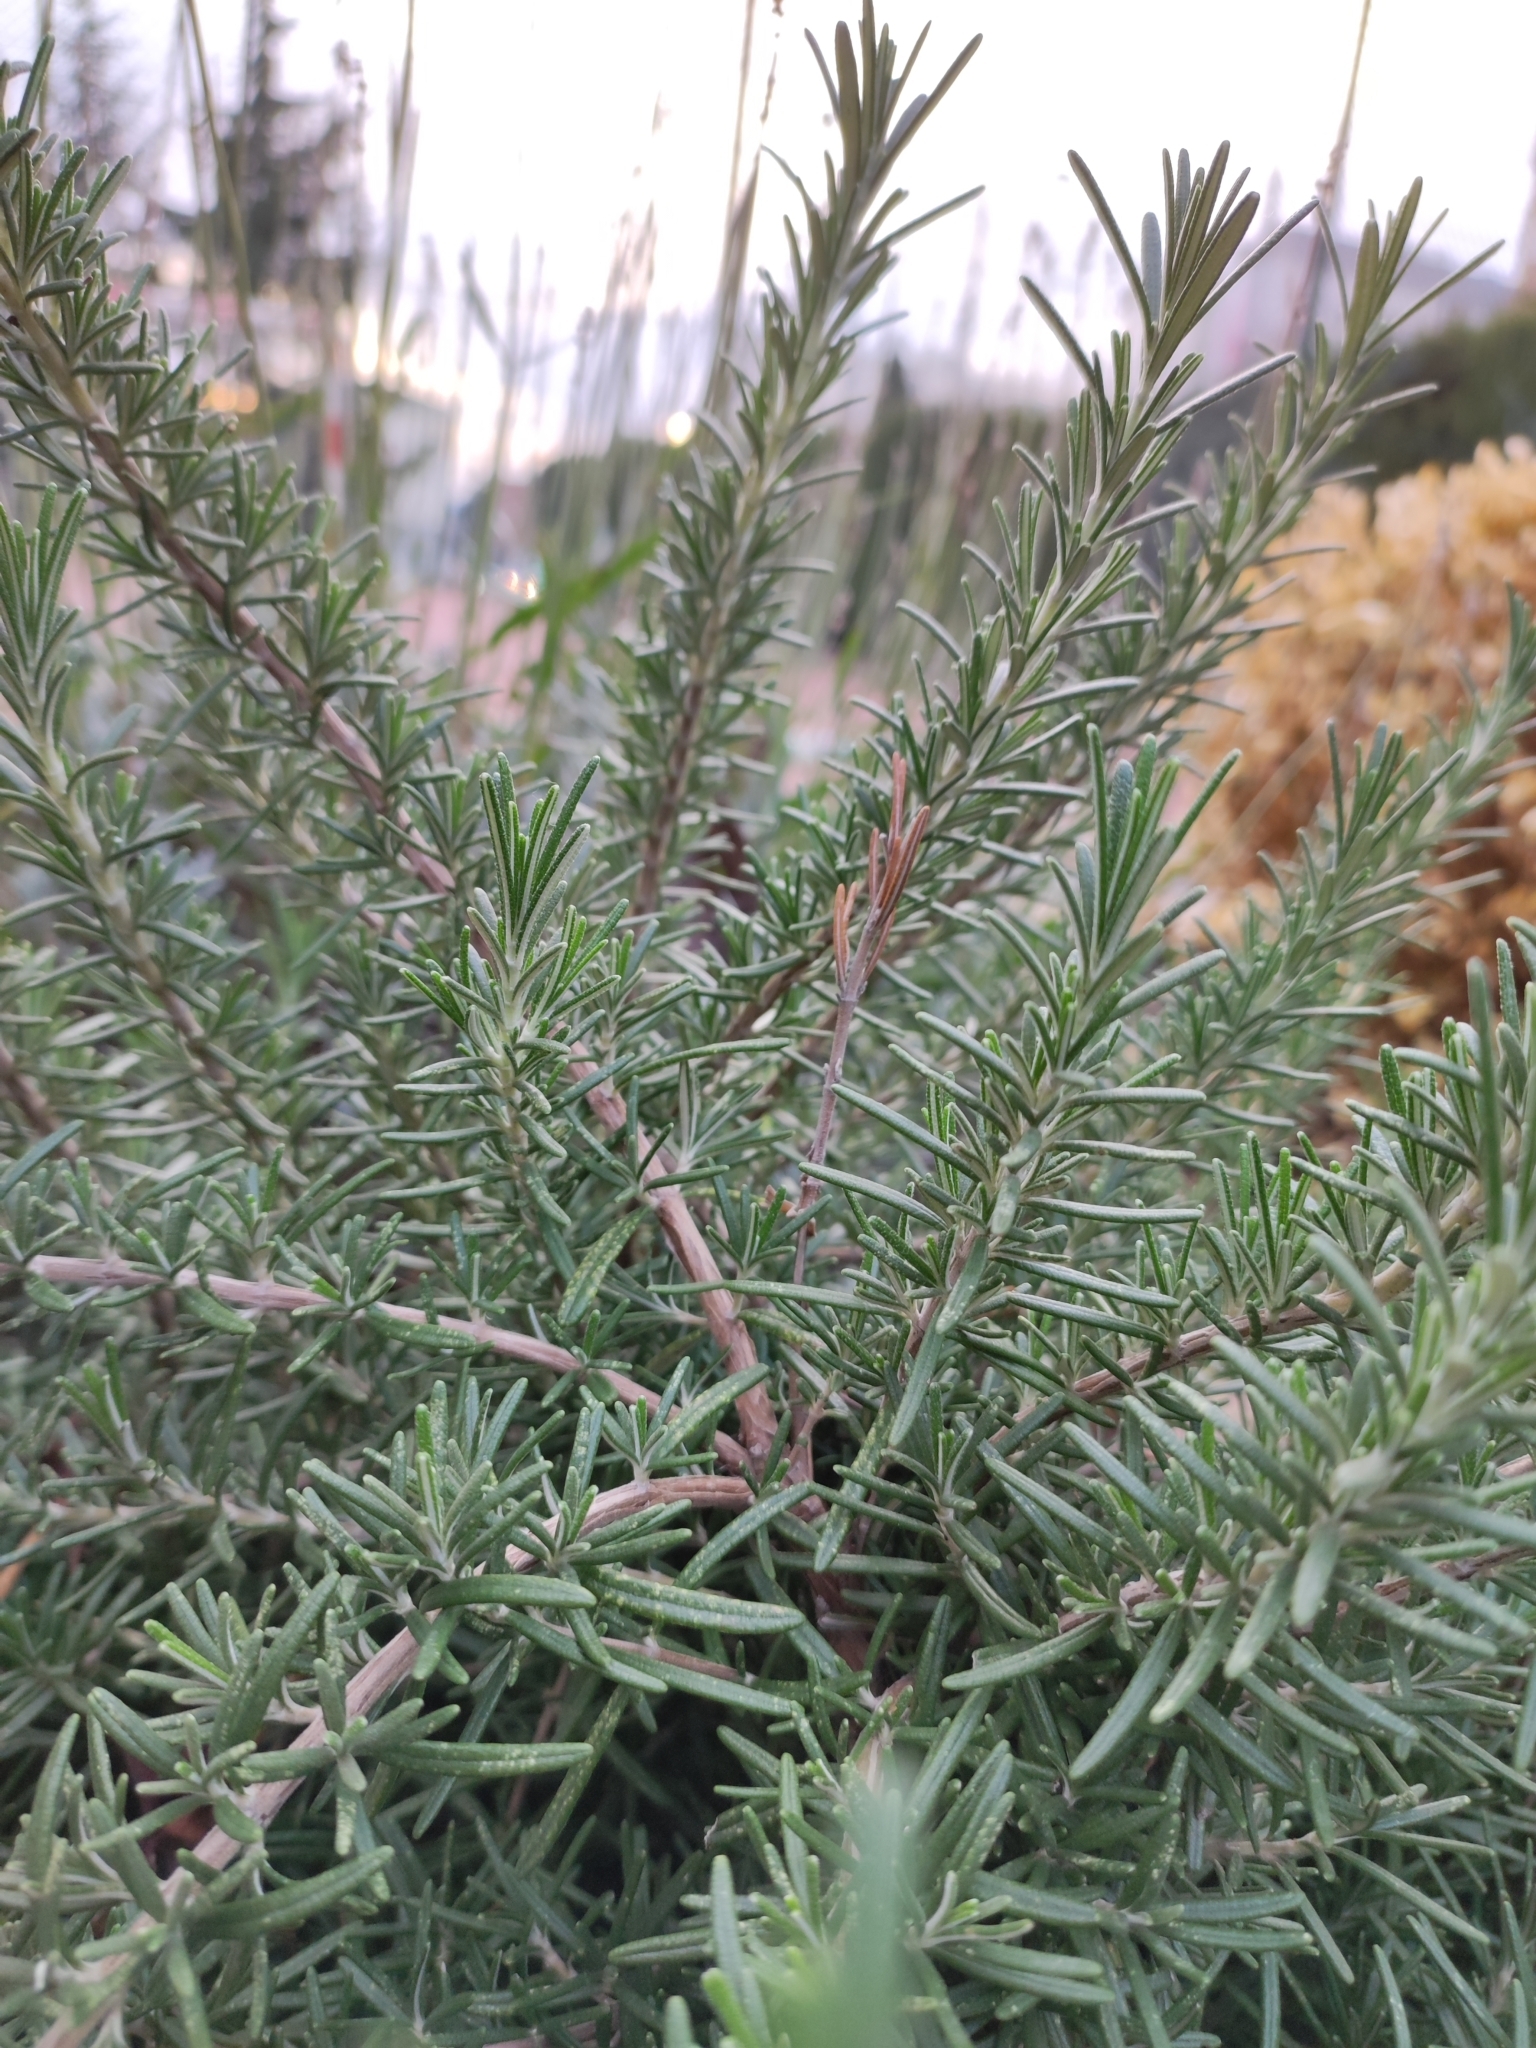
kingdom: Plantae
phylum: Tracheophyta
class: Magnoliopsida
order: Lamiales
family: Lamiaceae
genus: Salvia
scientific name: Salvia rosmarinus
